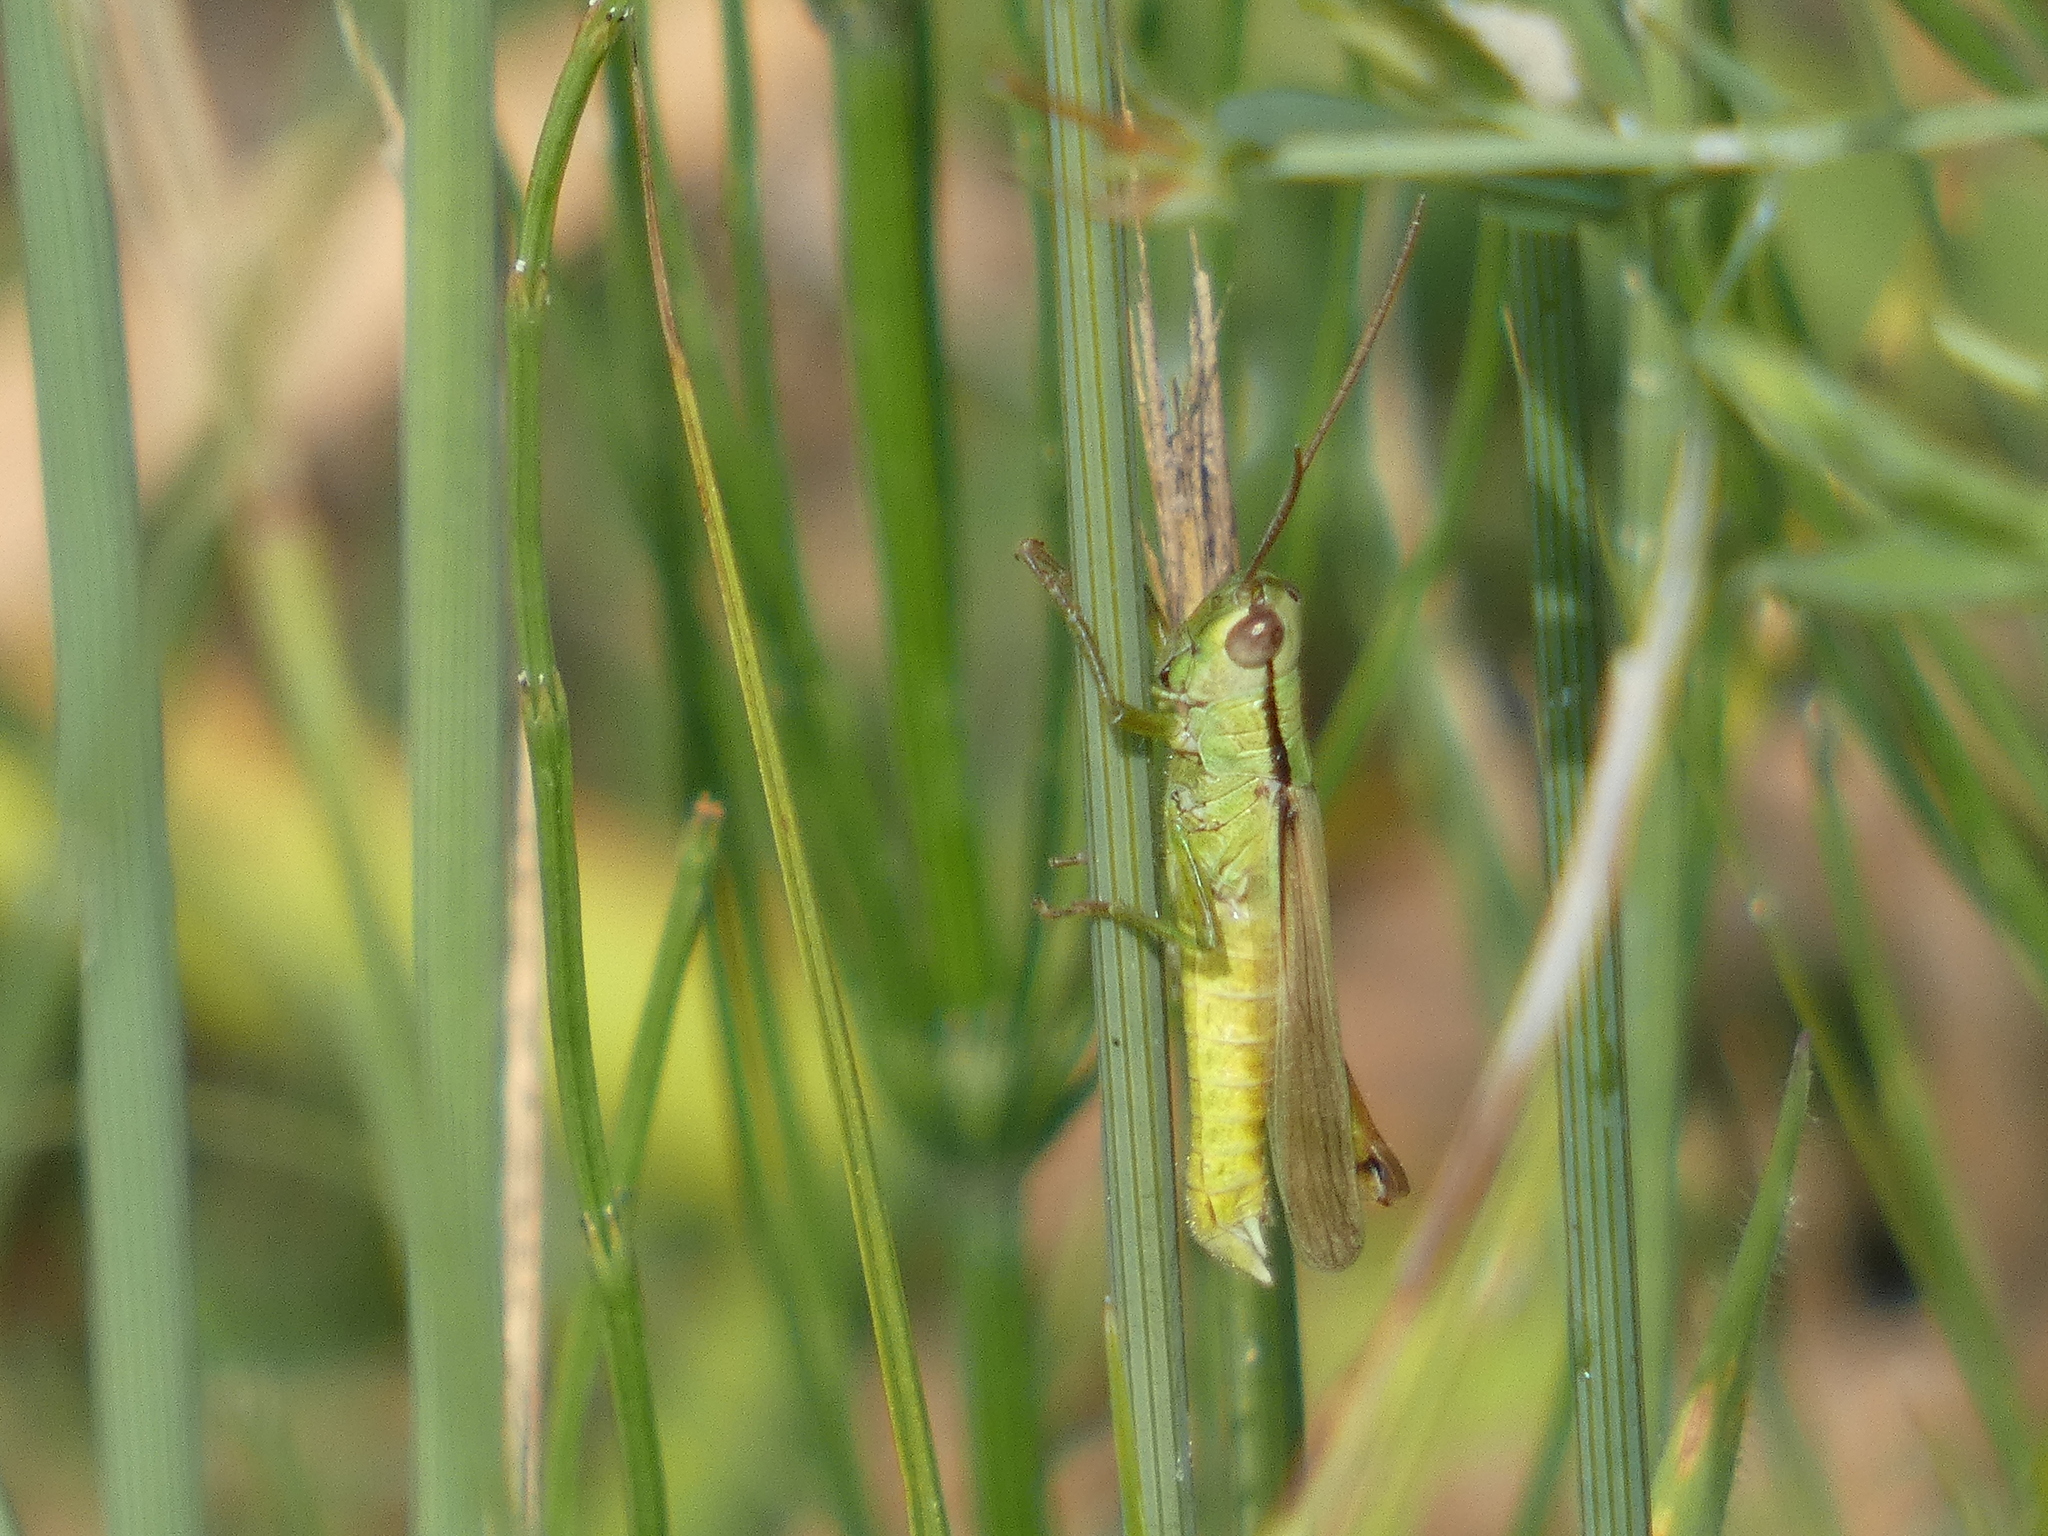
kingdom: Animalia
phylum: Arthropoda
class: Insecta
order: Orthoptera
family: Acrididae
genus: Mecostethus
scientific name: Mecostethus parapleurus
